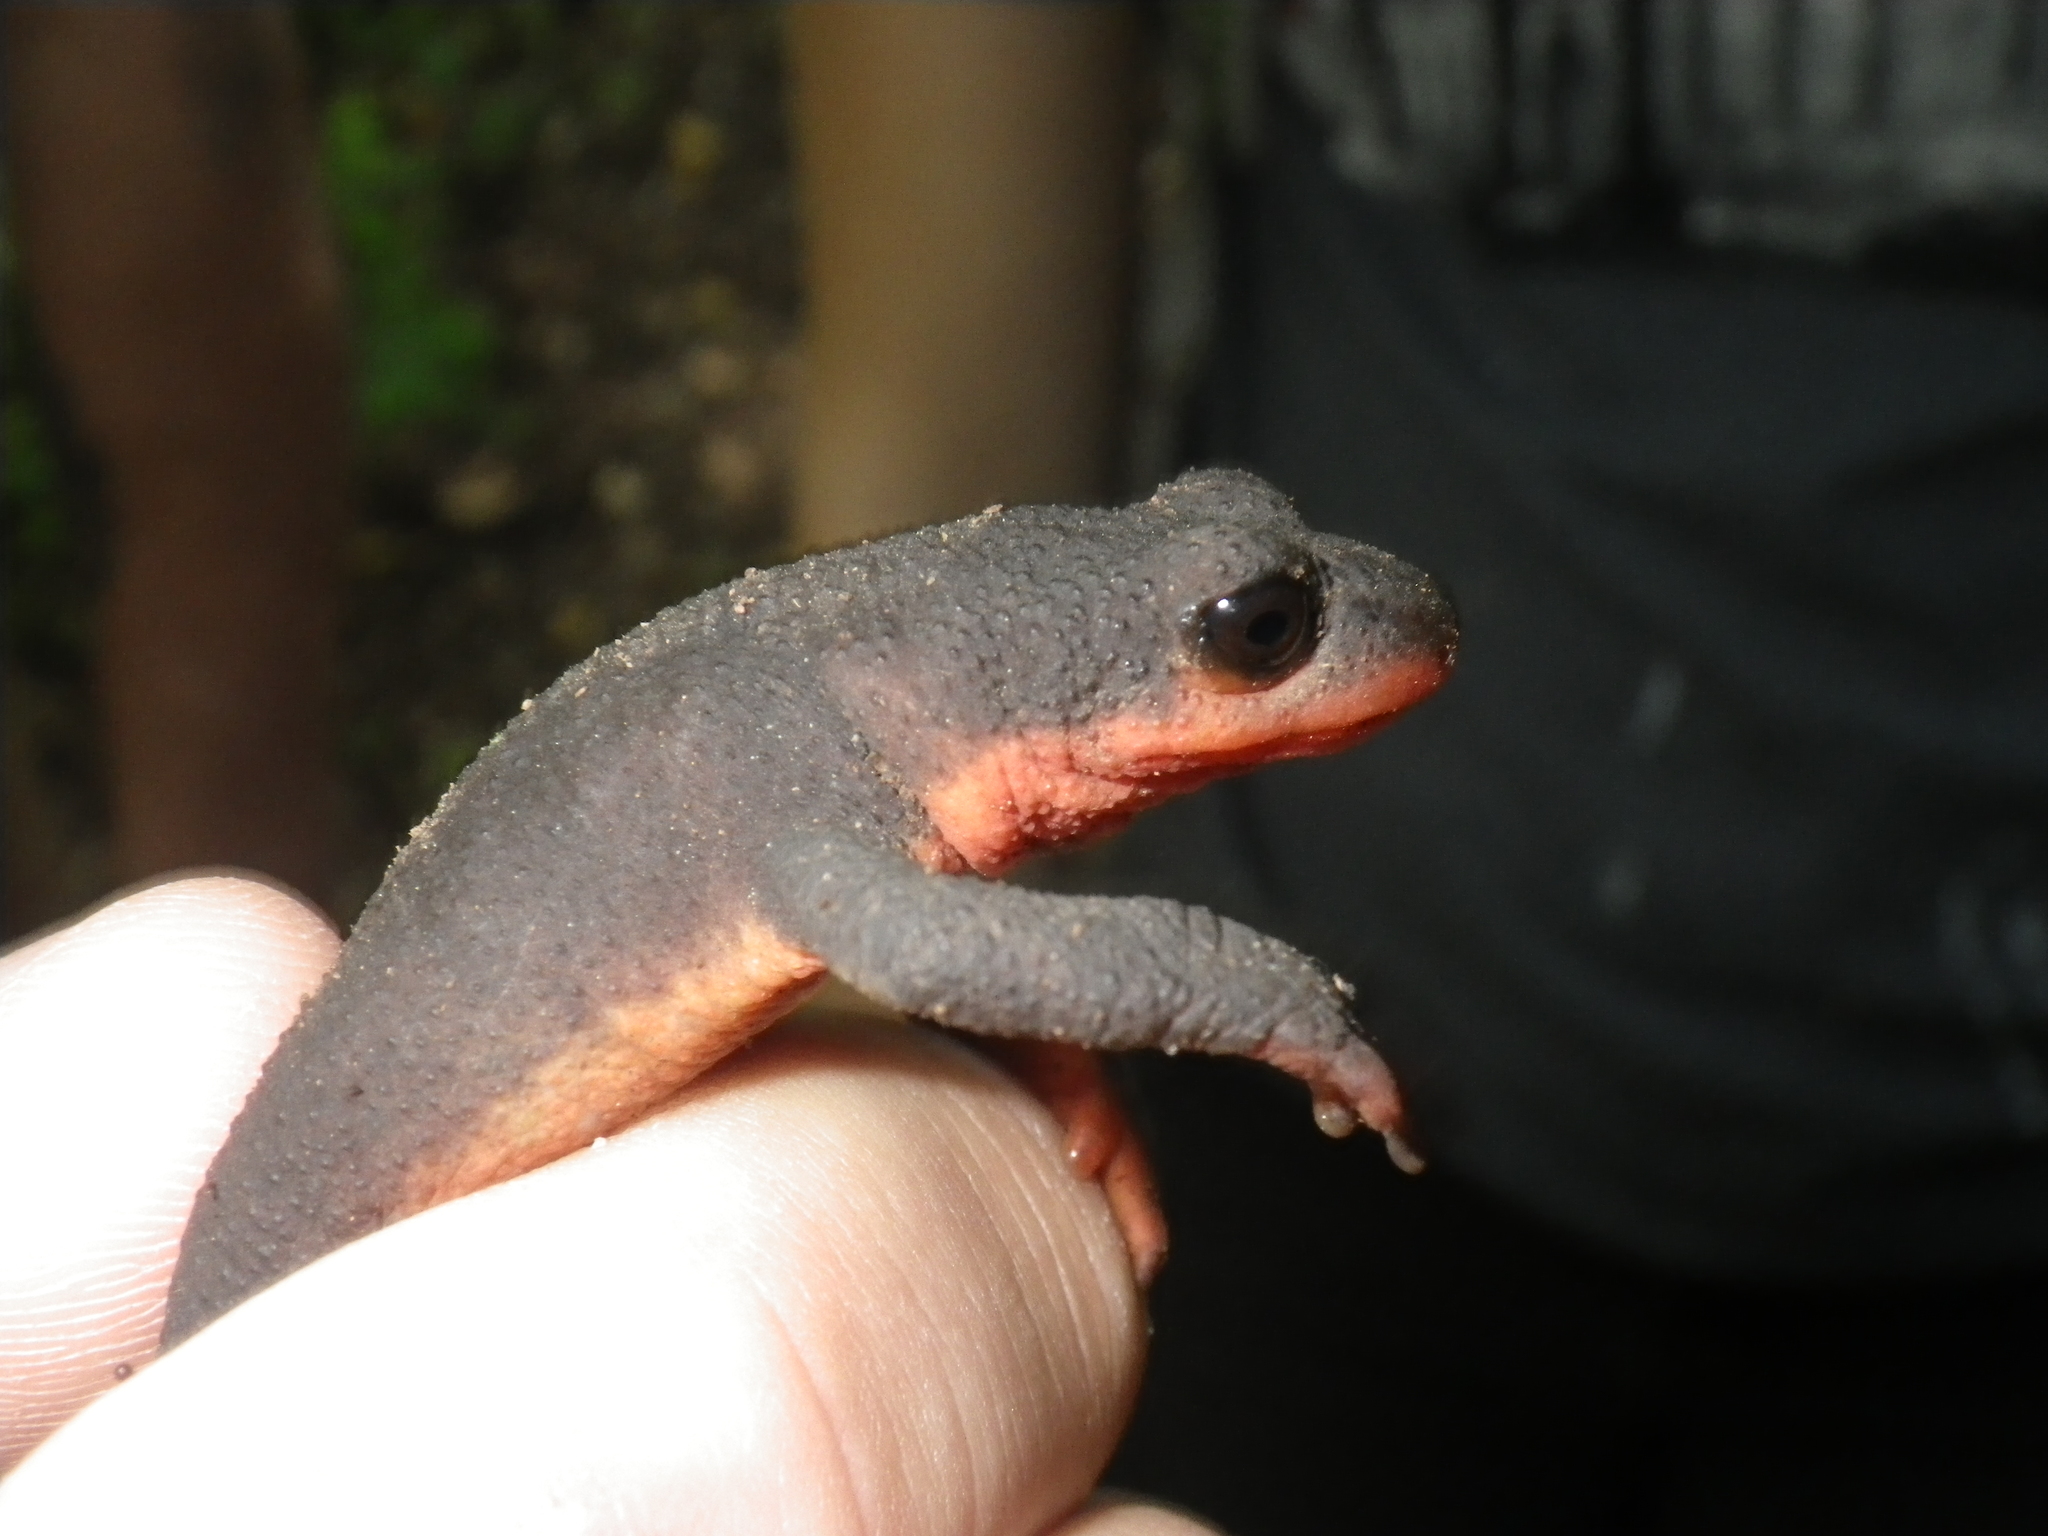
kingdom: Animalia
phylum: Chordata
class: Amphibia
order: Caudata
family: Salamandridae
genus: Taricha
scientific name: Taricha rivularis
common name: Red-bellied newt
